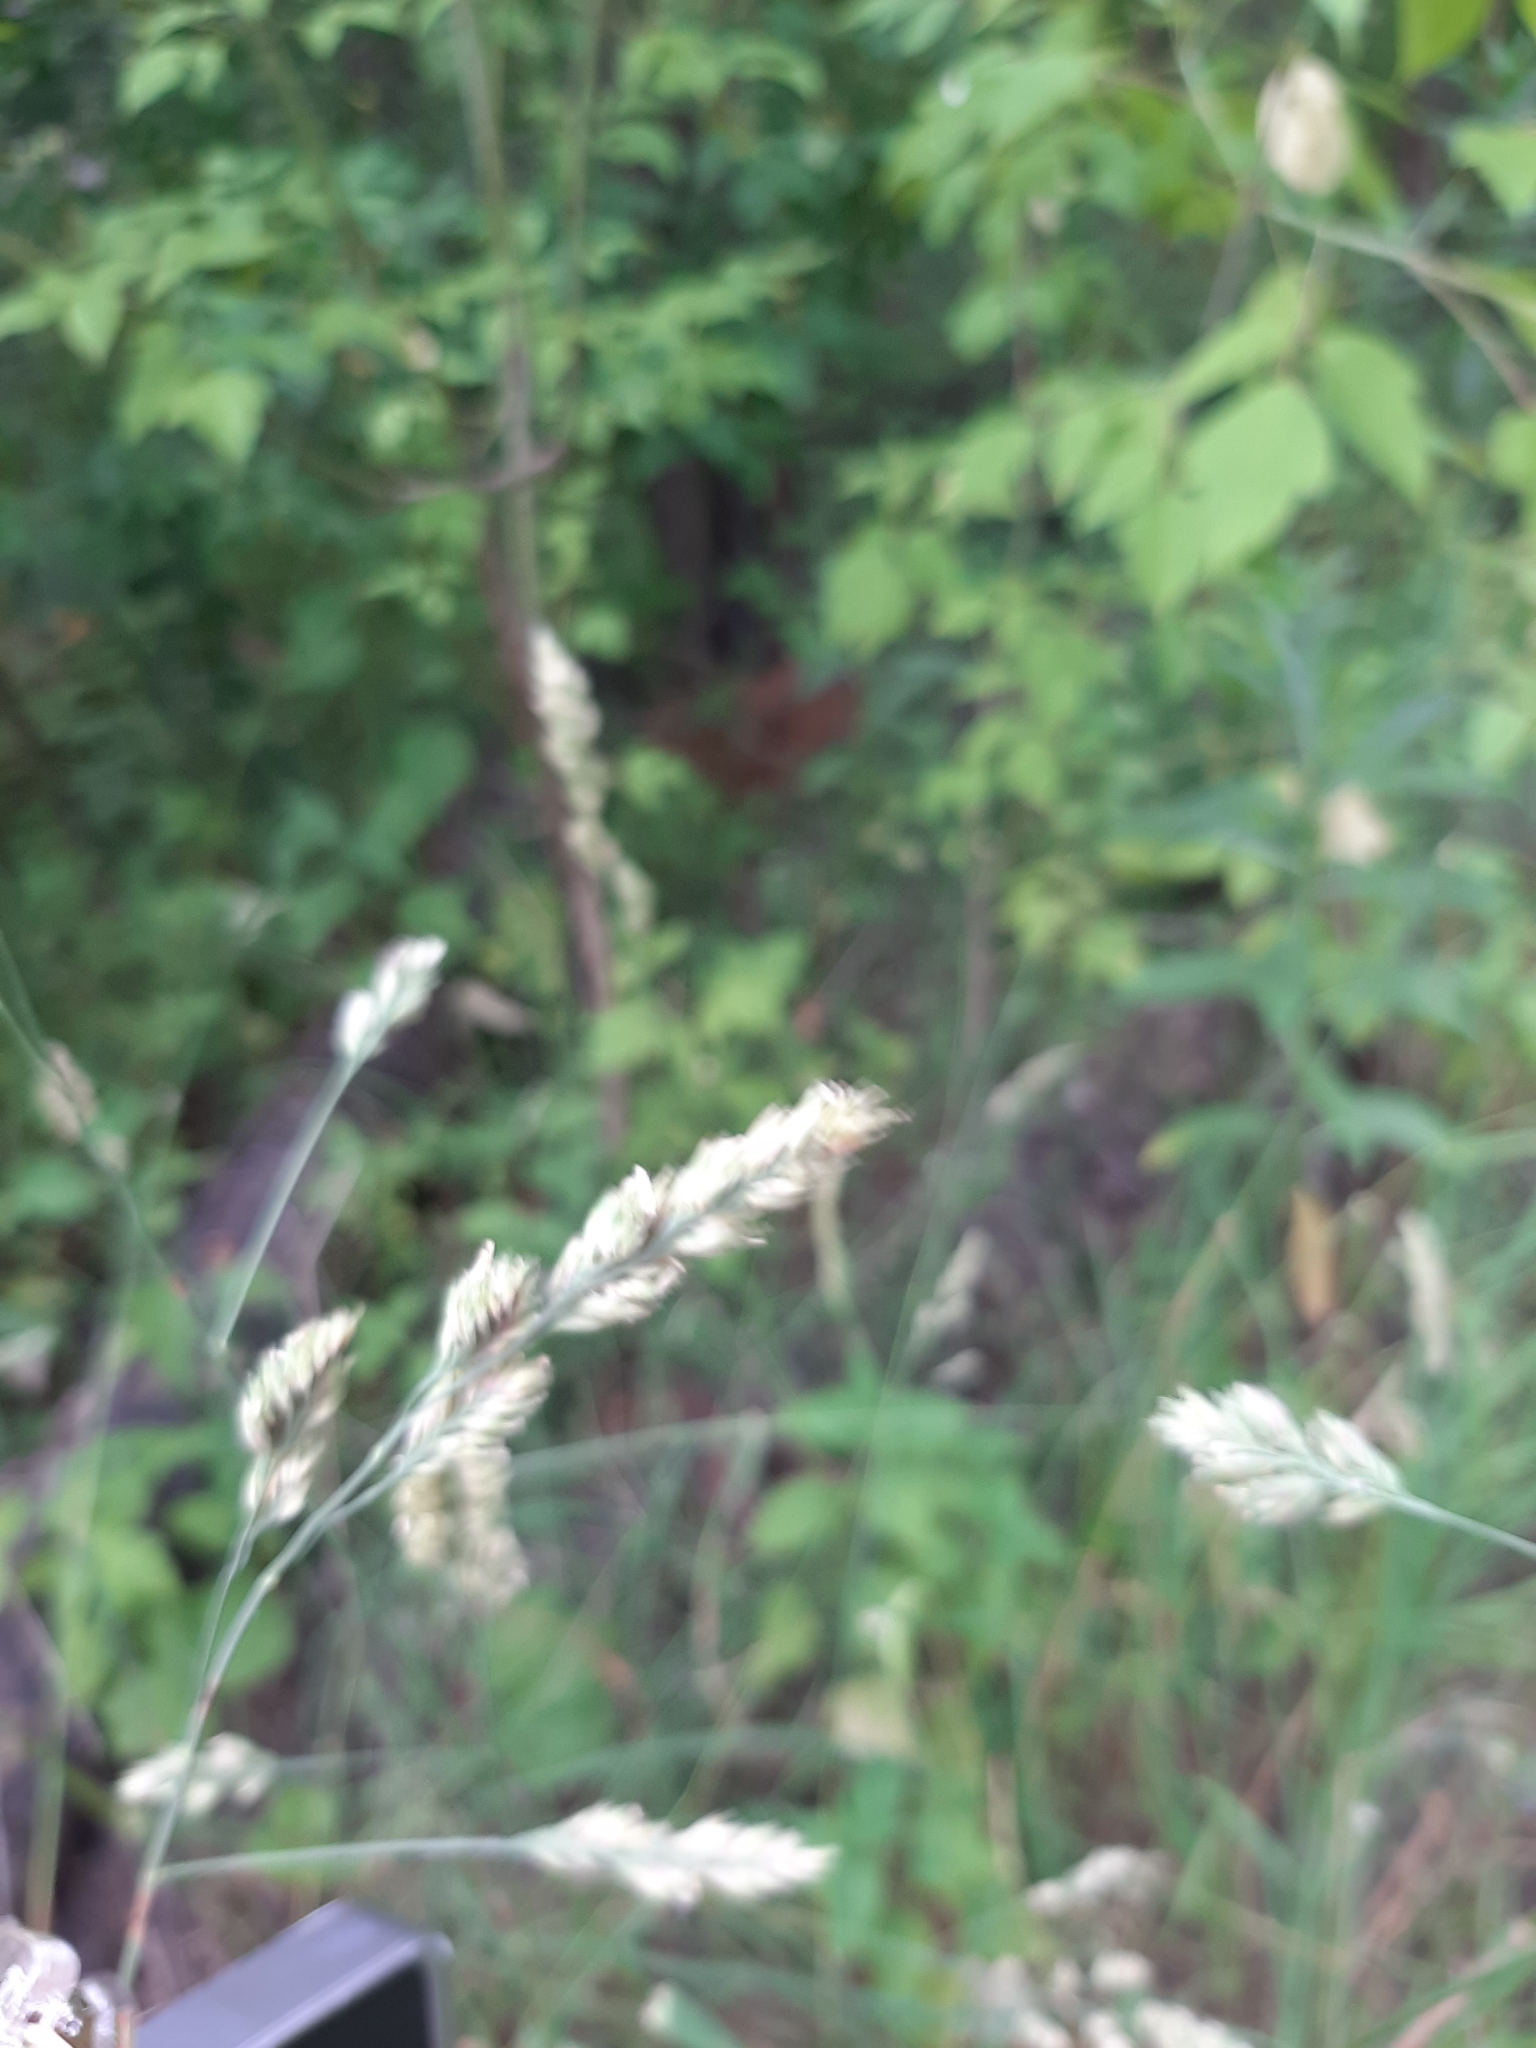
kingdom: Plantae
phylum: Tracheophyta
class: Liliopsida
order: Poales
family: Poaceae
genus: Dactylis
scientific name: Dactylis glomerata
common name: Orchardgrass
